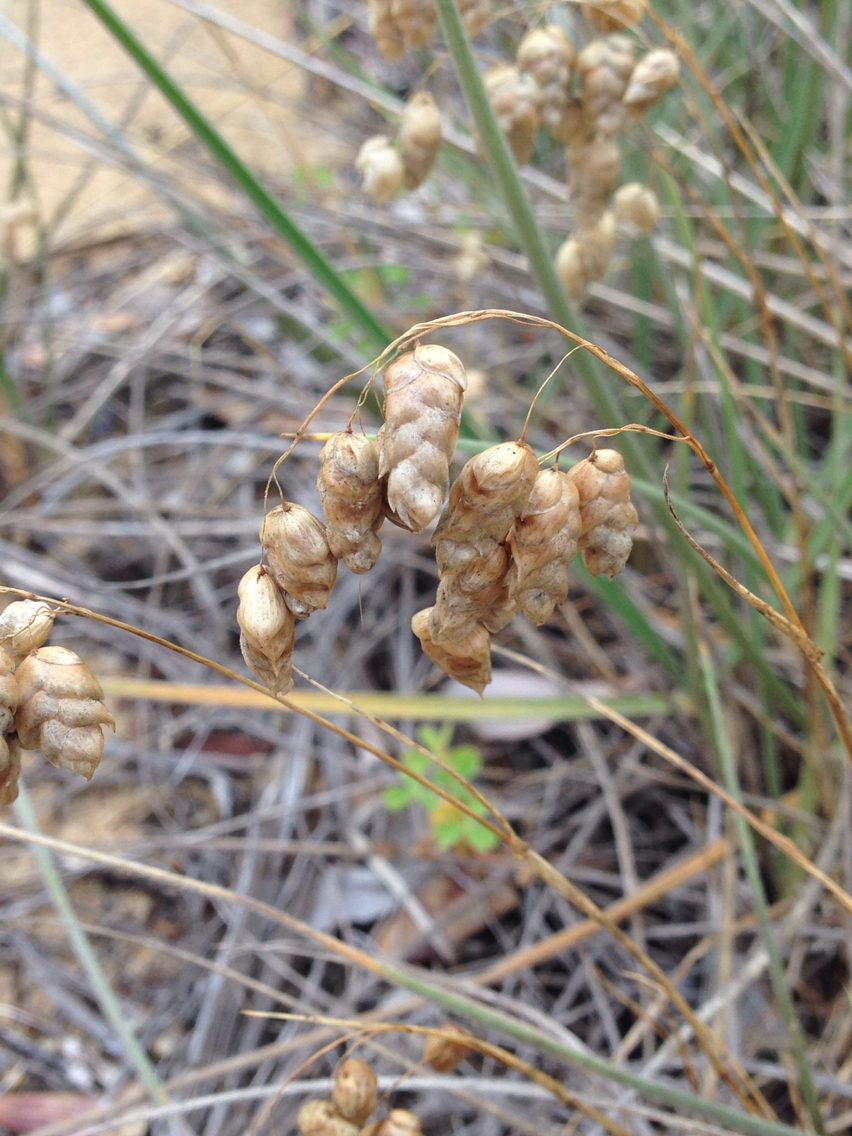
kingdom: Plantae
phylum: Tracheophyta
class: Liliopsida
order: Poales
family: Poaceae
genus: Briza
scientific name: Briza maxima
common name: Big quakinggrass
